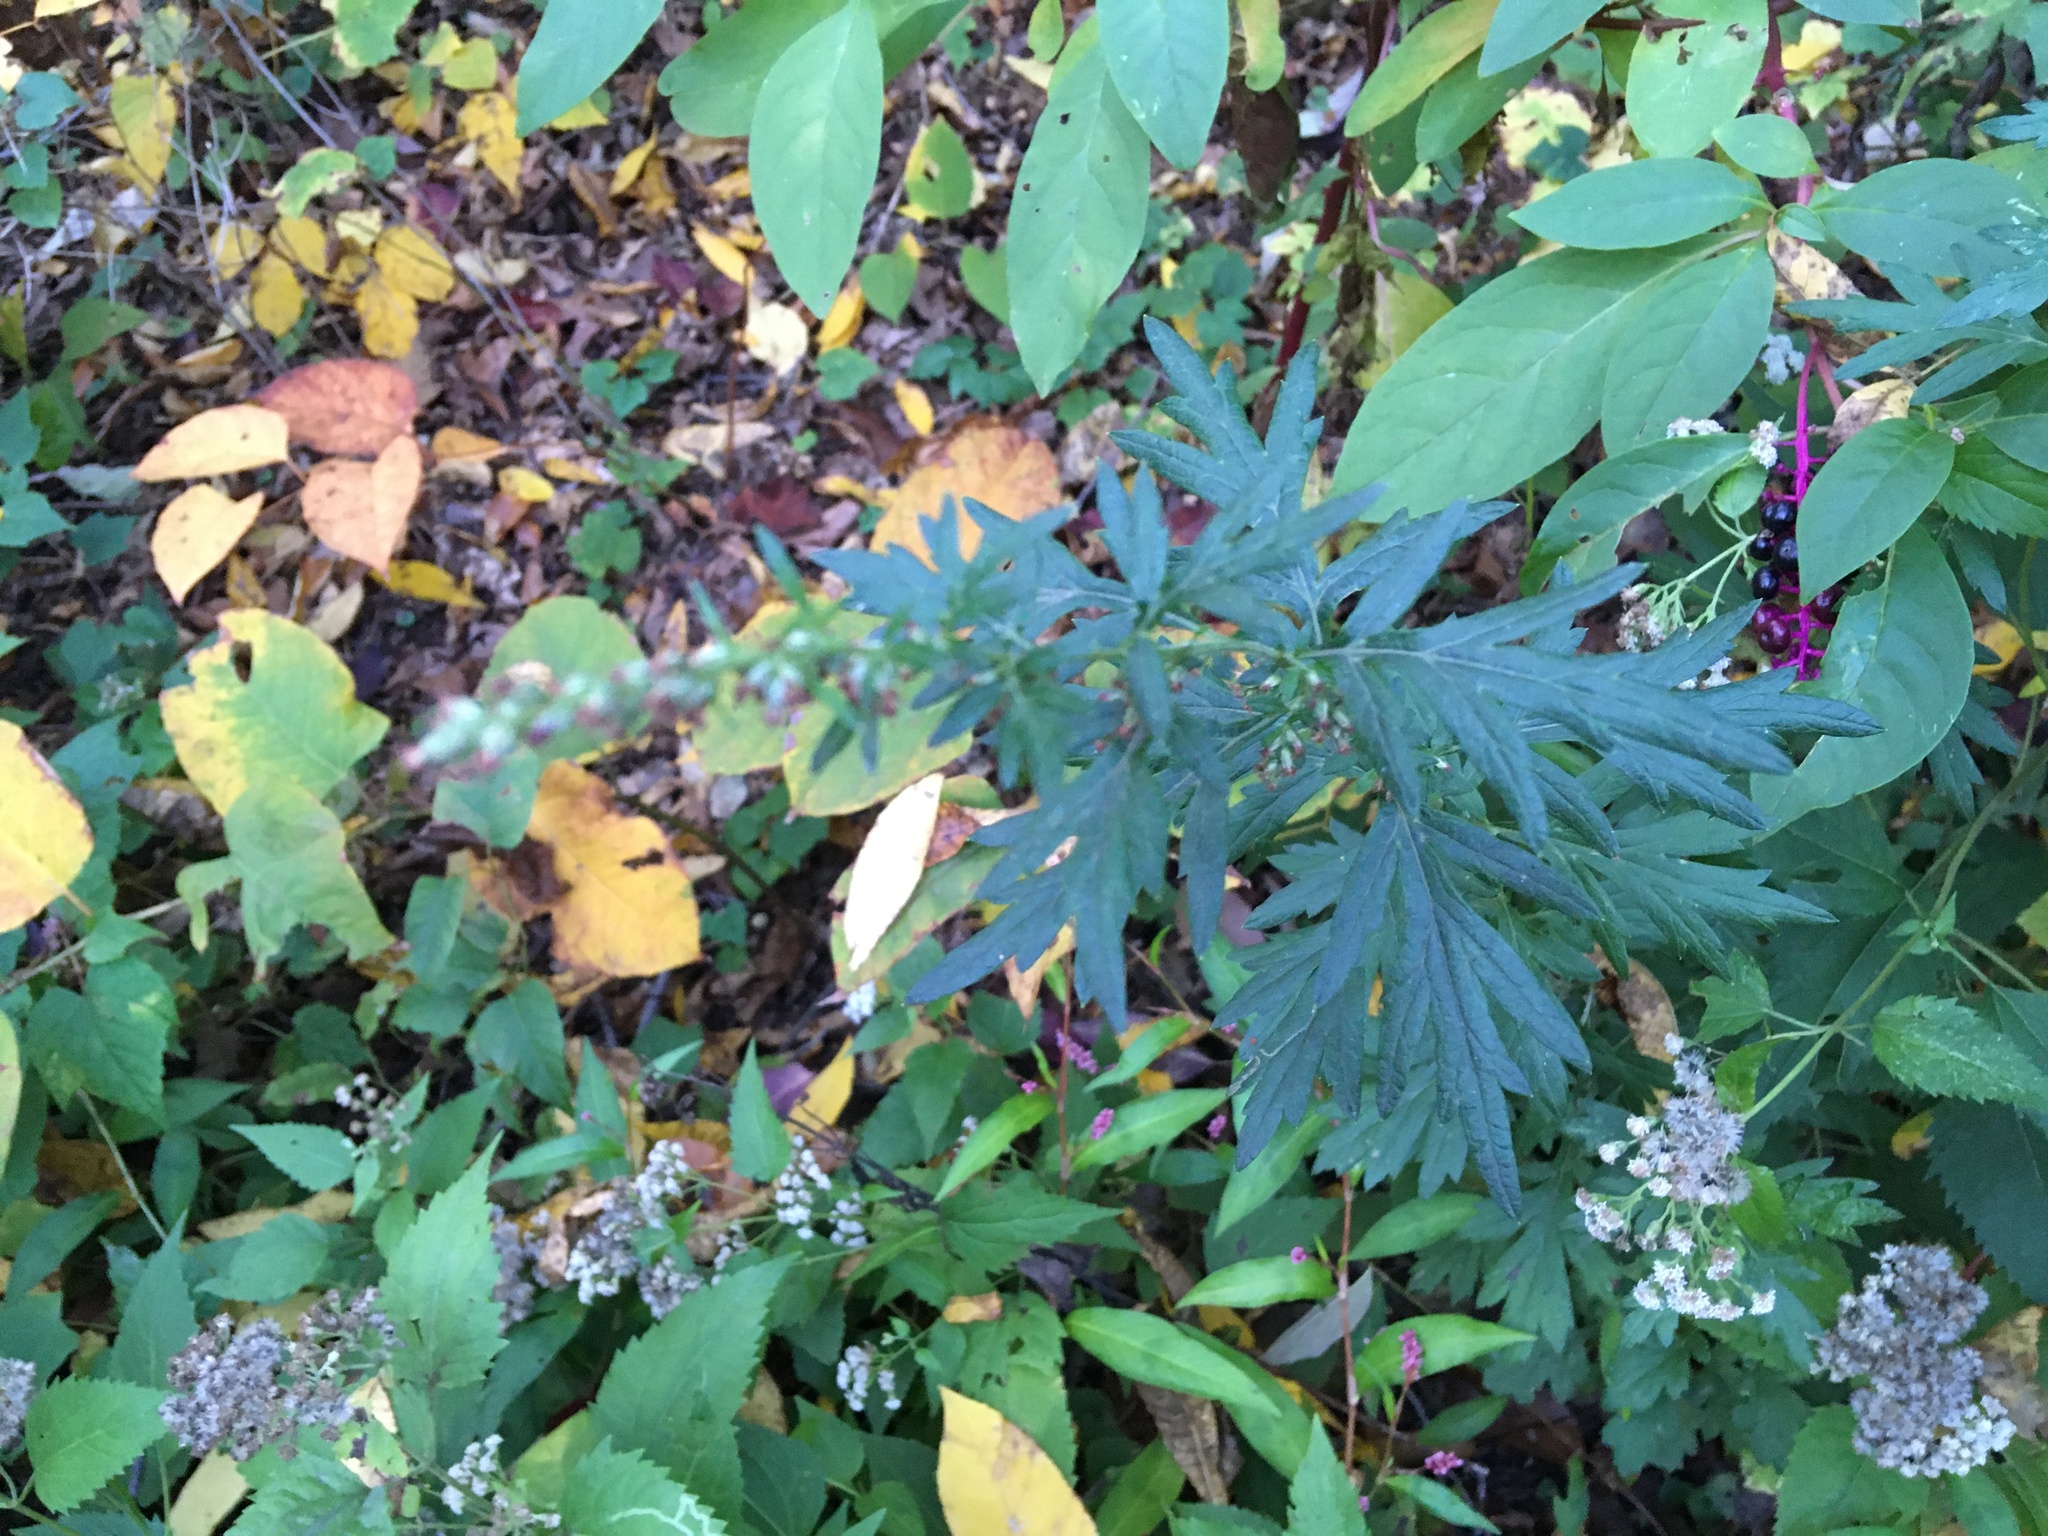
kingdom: Plantae
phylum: Tracheophyta
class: Magnoliopsida
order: Asterales
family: Asteraceae
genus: Artemisia
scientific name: Artemisia vulgaris
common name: Mugwort
